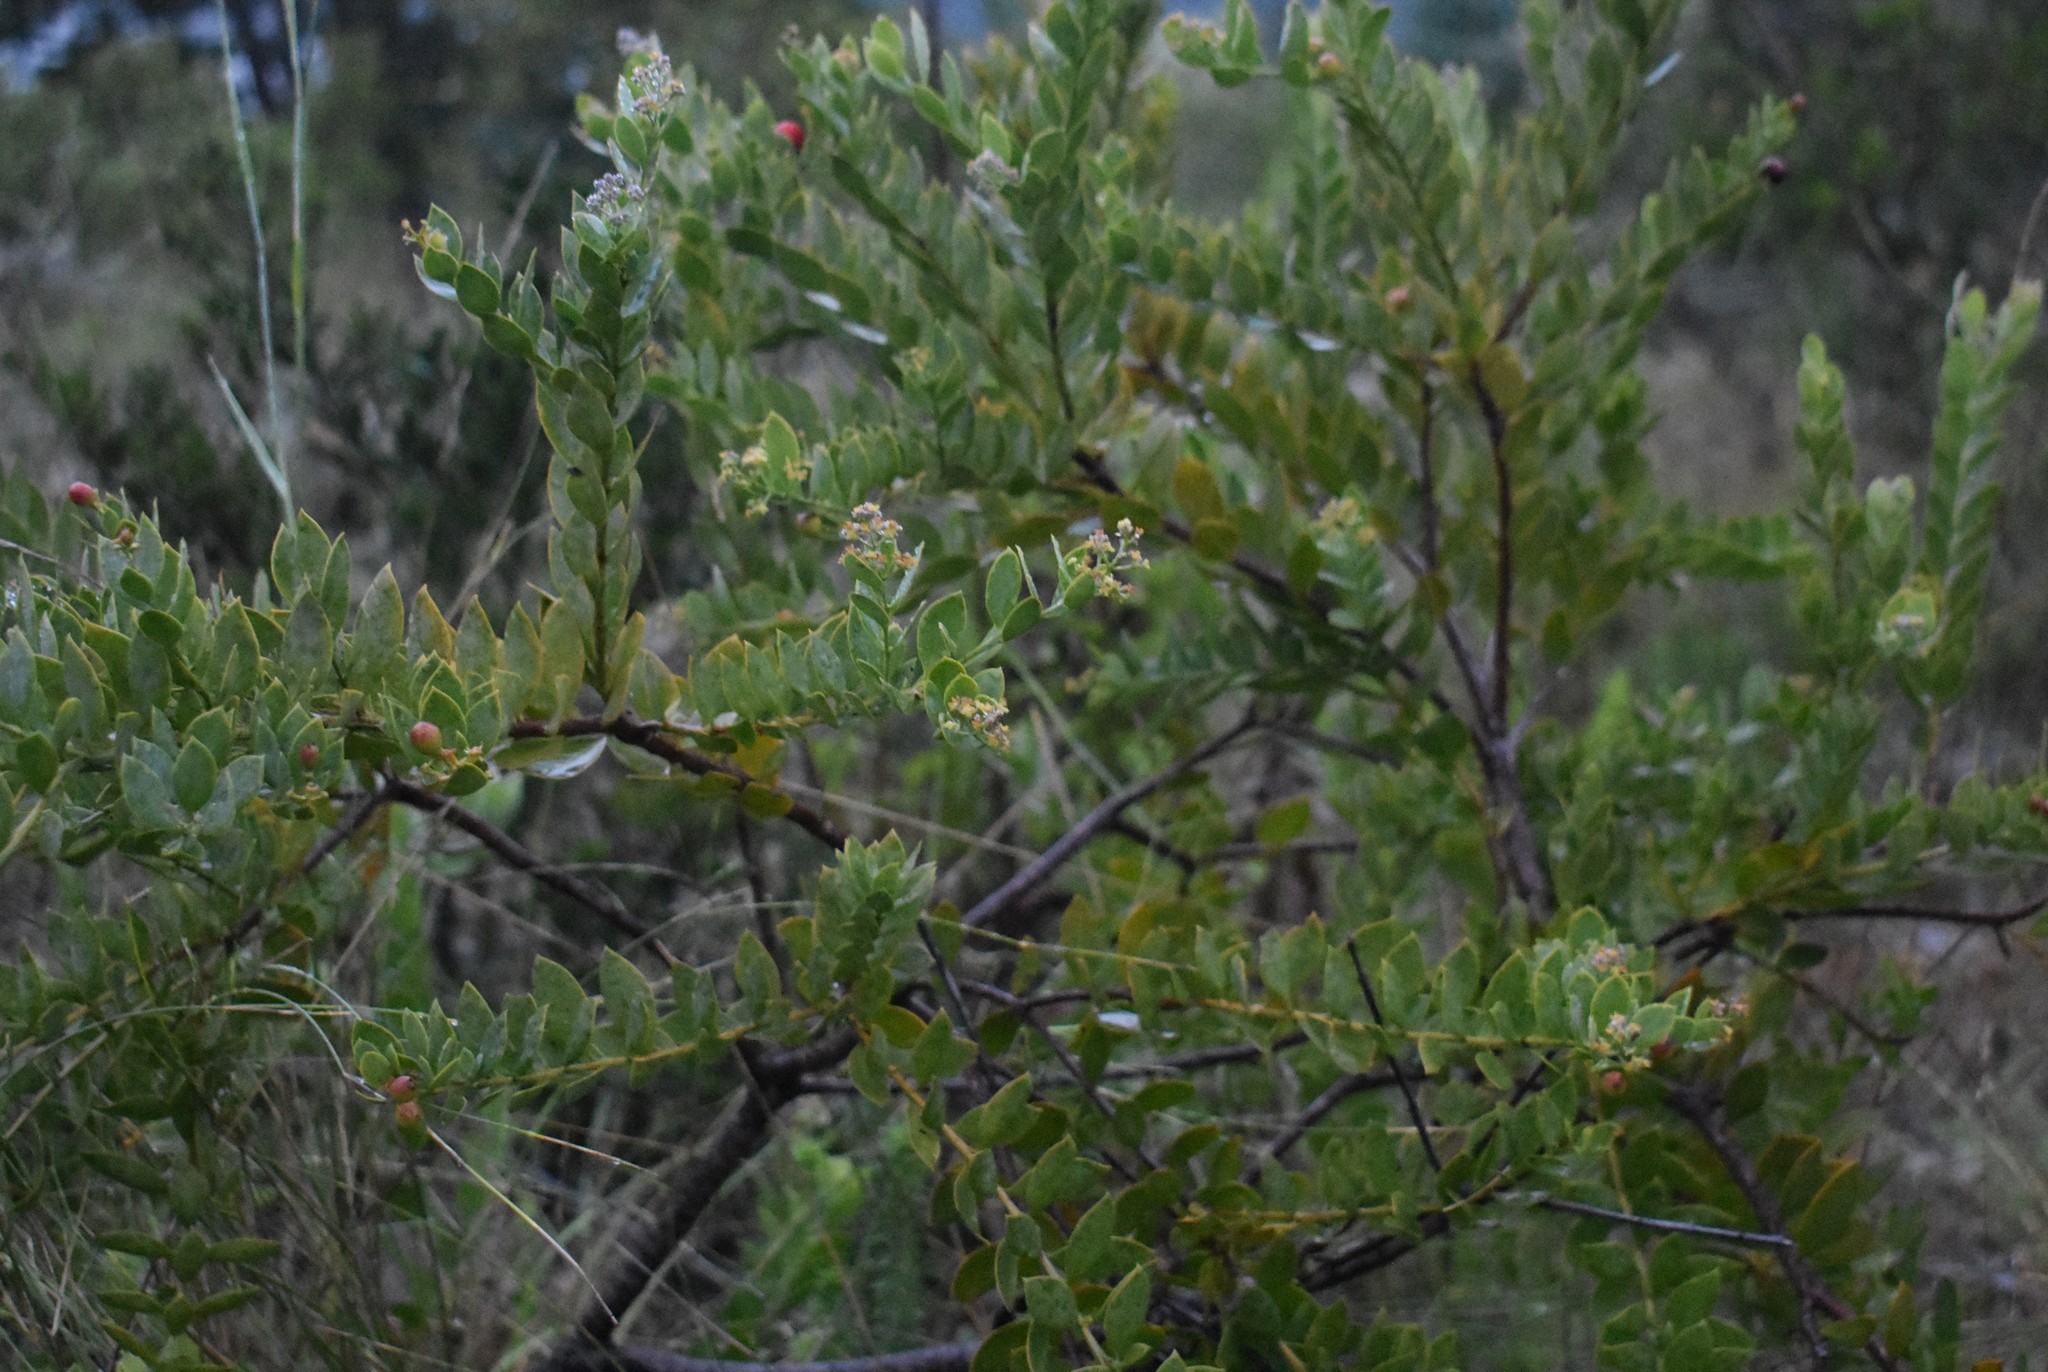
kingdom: Plantae
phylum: Tracheophyta
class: Magnoliopsida
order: Santalales
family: Santalaceae
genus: Osyris
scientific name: Osyris compressa
